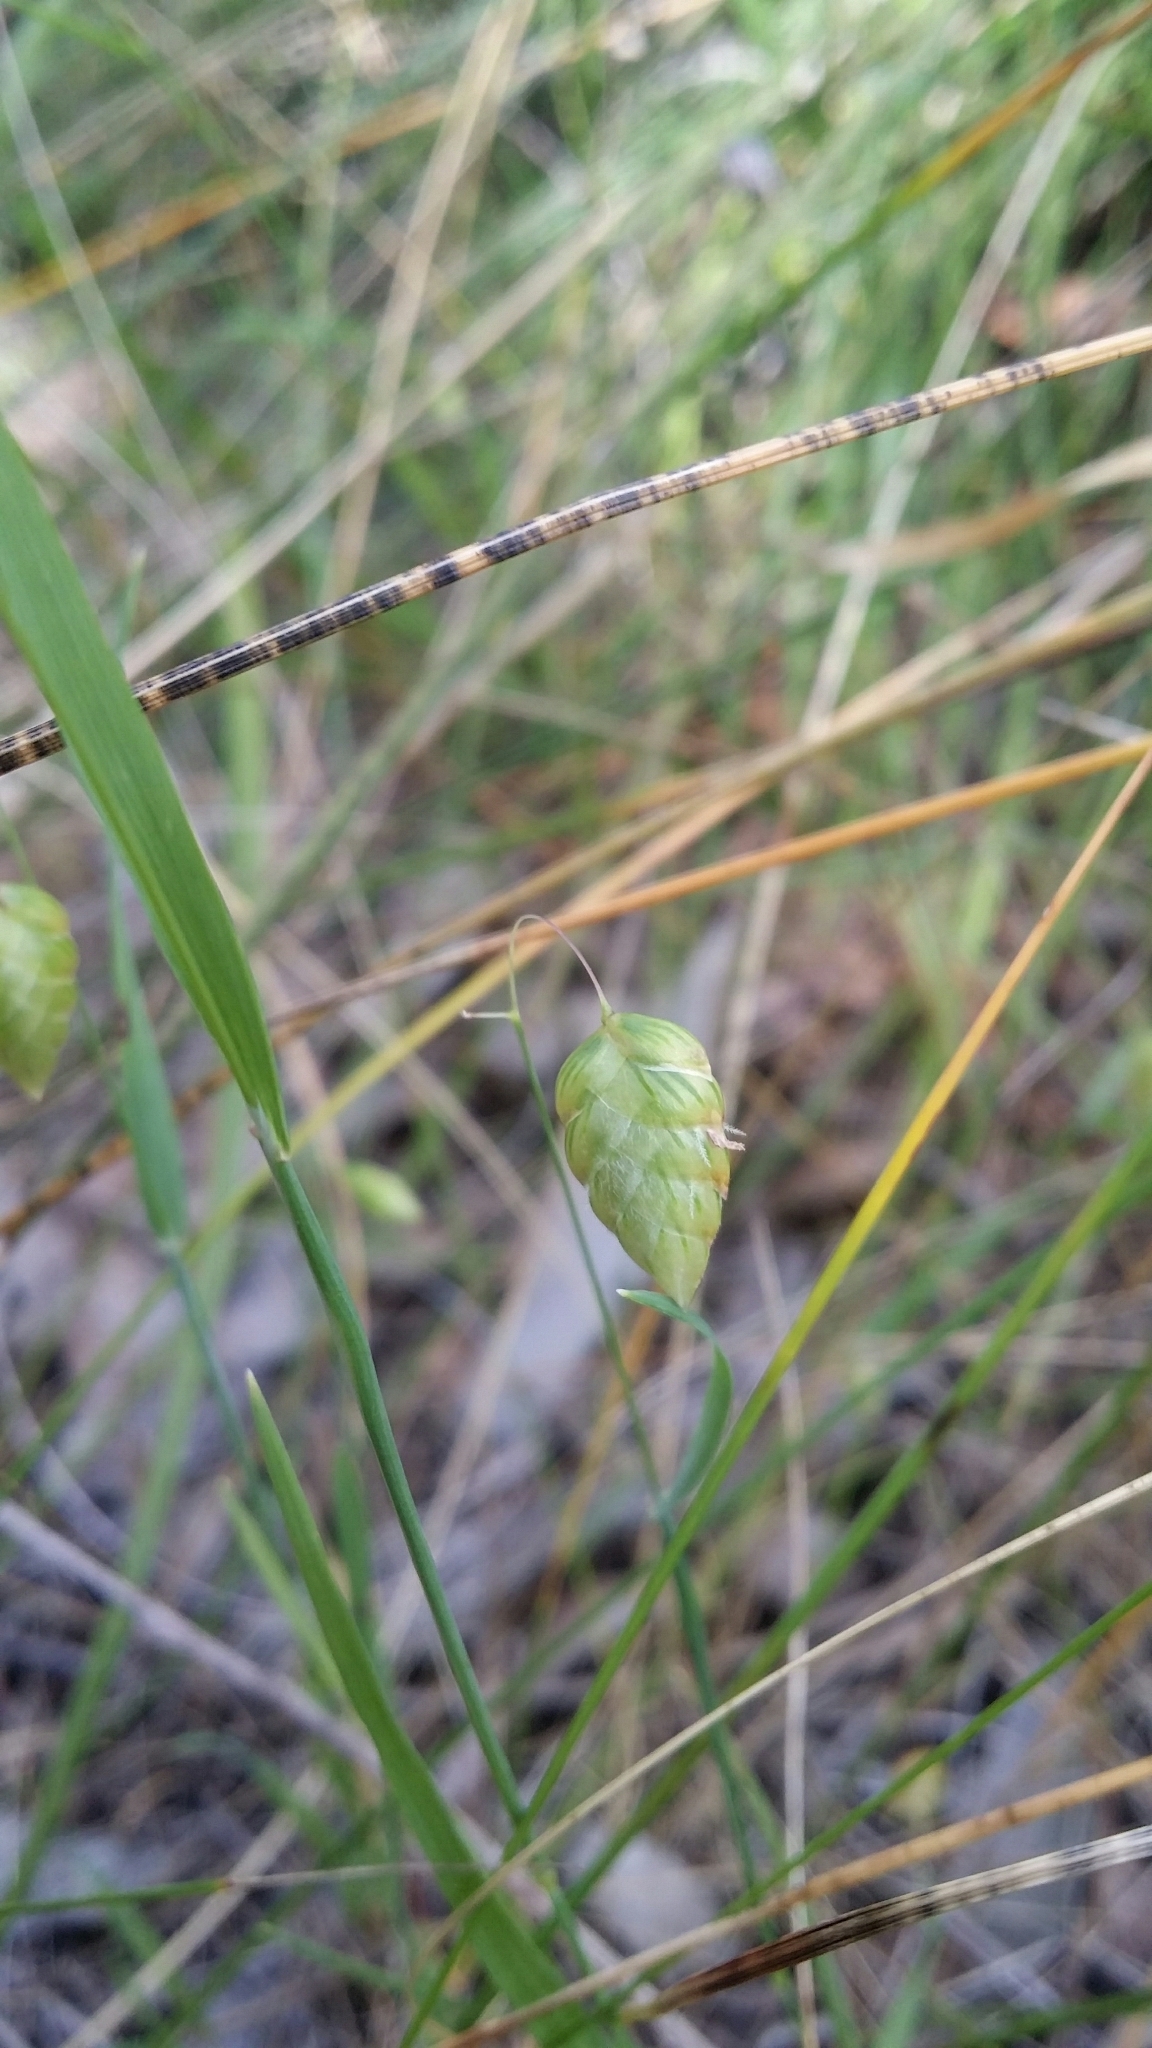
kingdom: Plantae
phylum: Tracheophyta
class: Liliopsida
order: Poales
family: Poaceae
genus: Briza
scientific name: Briza maxima
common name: Big quakinggrass
